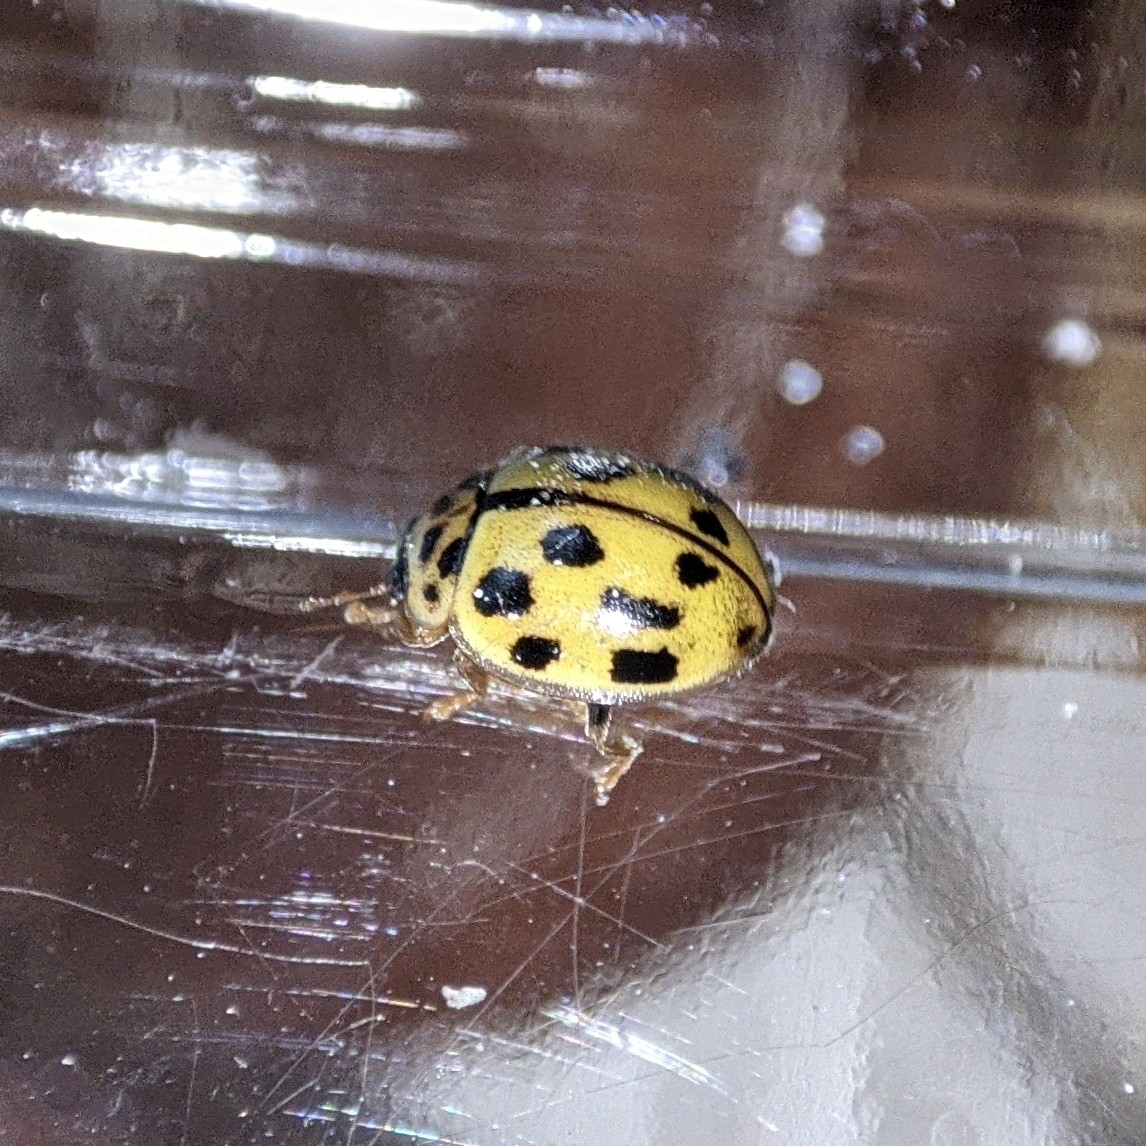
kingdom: Animalia
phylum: Arthropoda
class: Insecta
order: Coleoptera
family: Coccinellidae
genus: Propylaea
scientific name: Propylaea quatuordecimpunctata
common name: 14-spotted ladybird beetle
